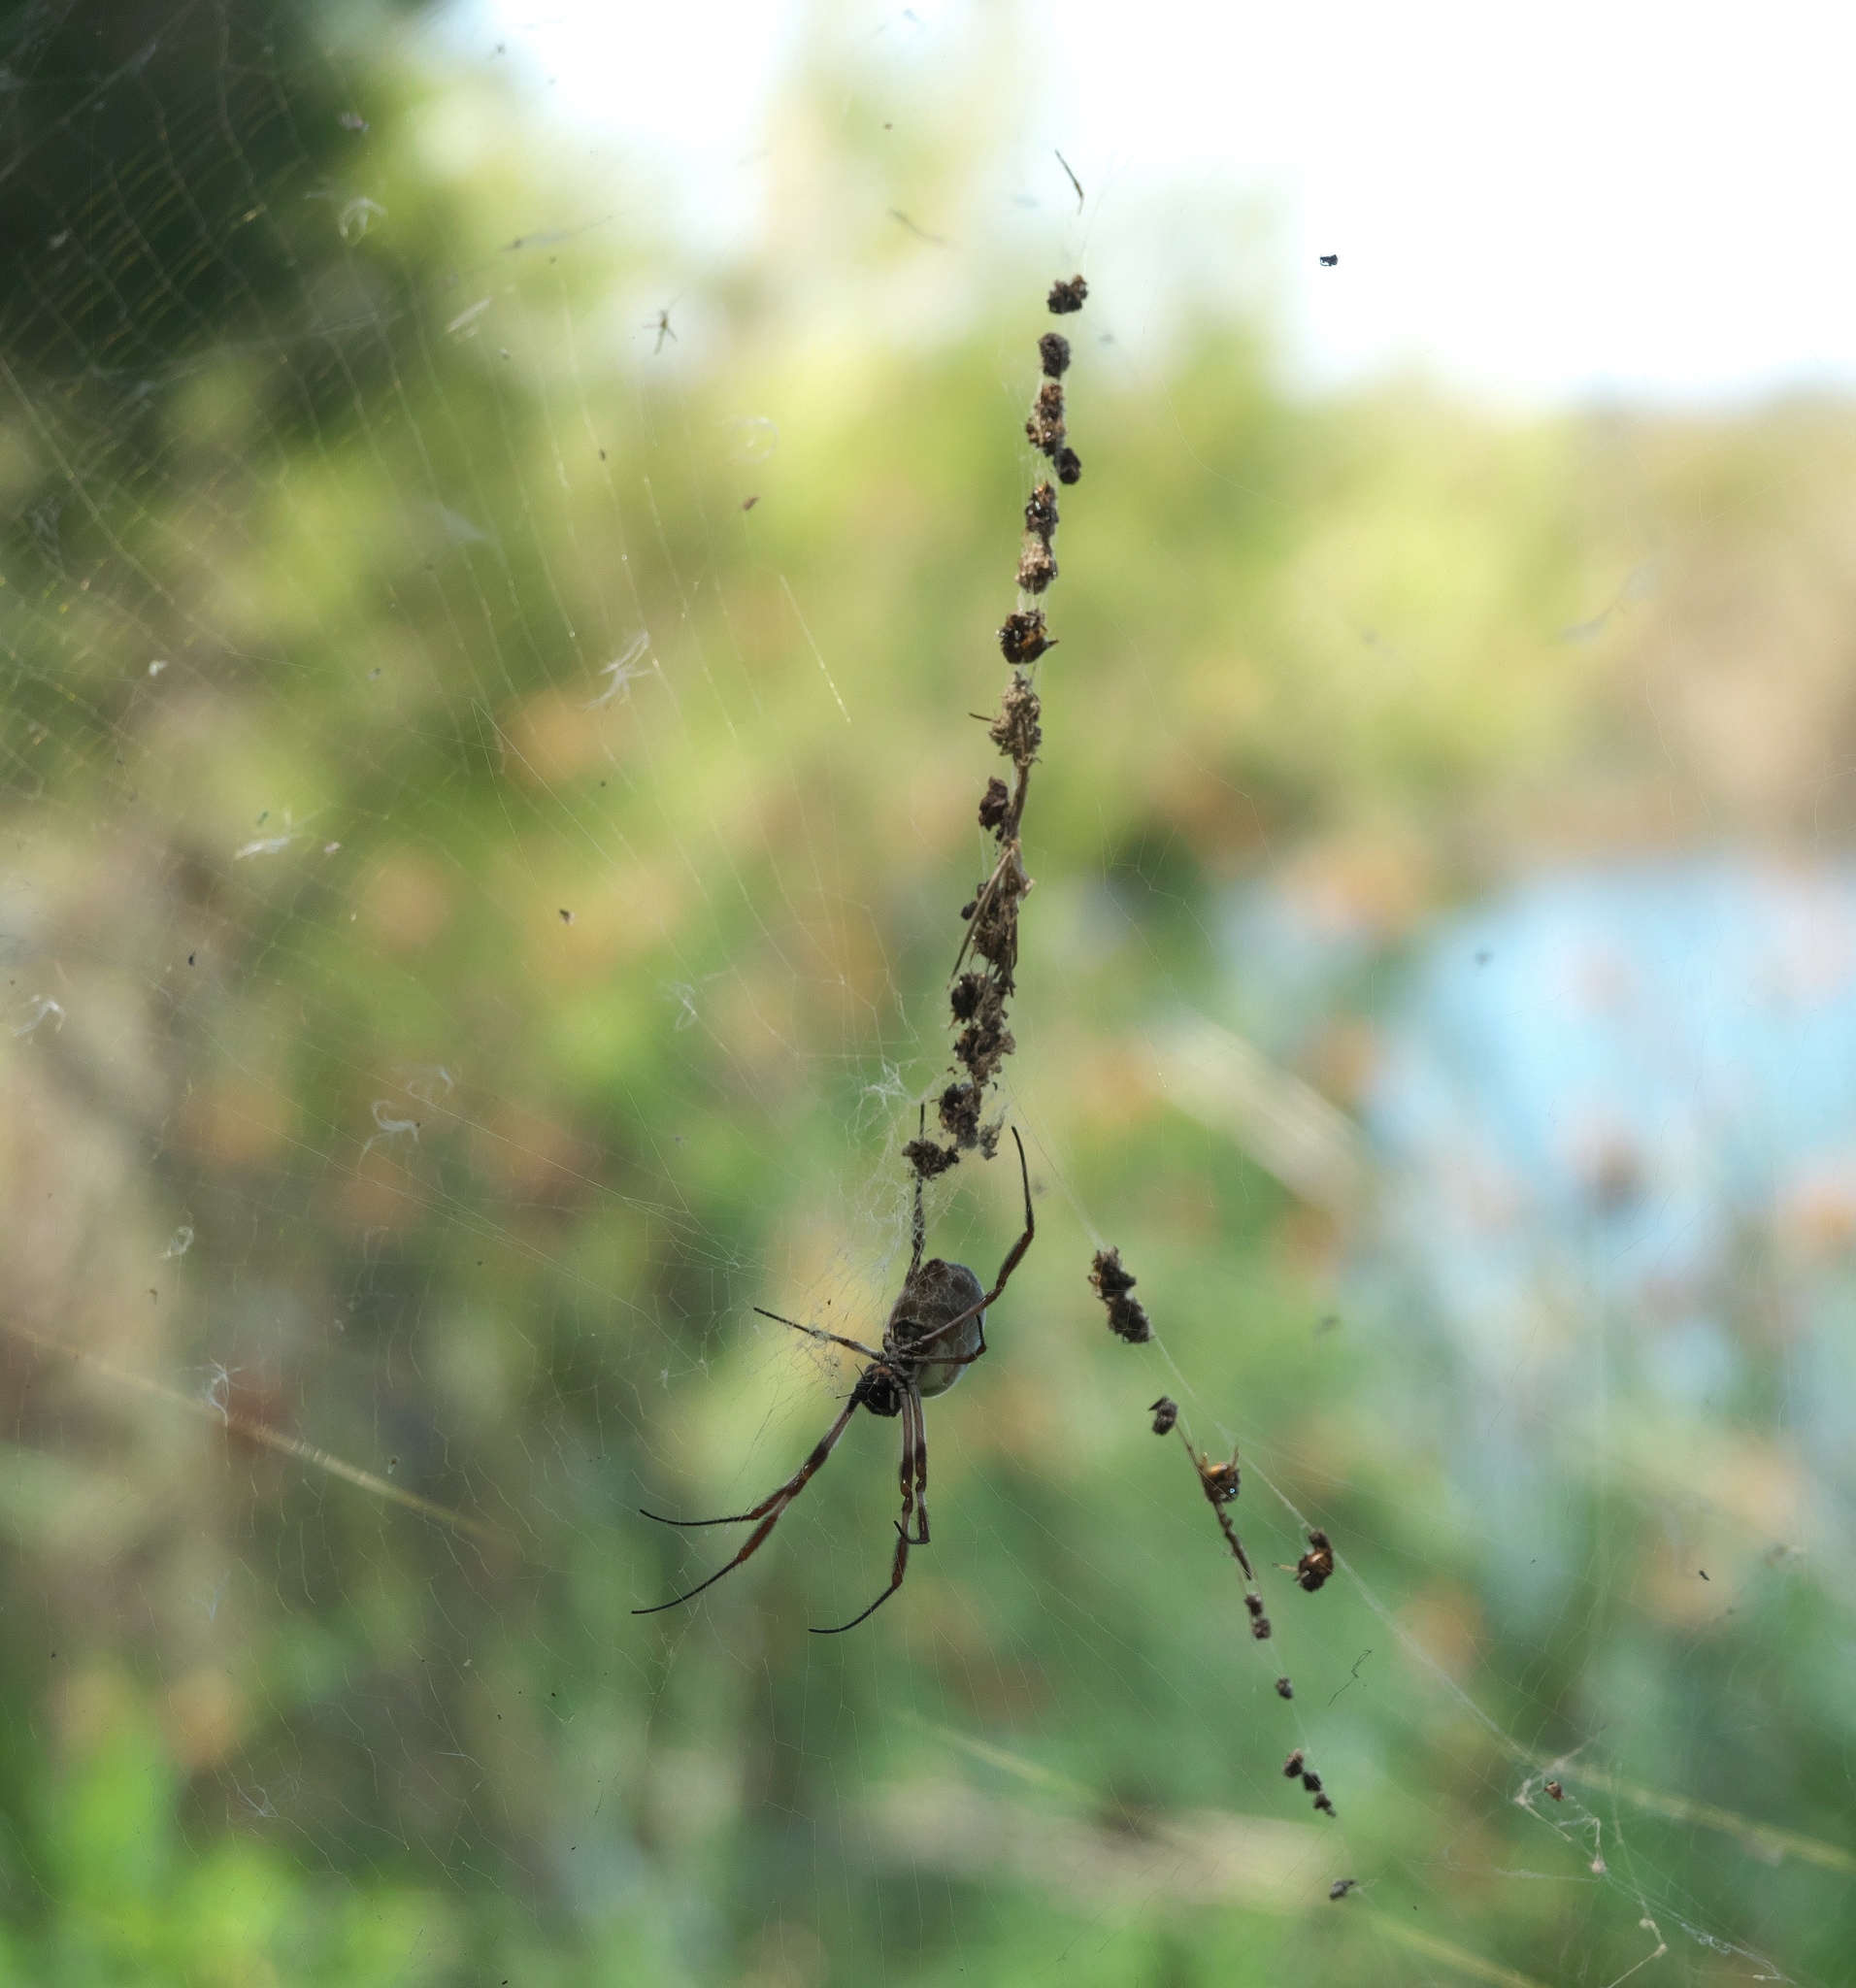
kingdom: Animalia
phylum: Arthropoda
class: Arachnida
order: Araneae
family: Araneidae
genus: Trichonephila
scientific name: Trichonephila edulis
